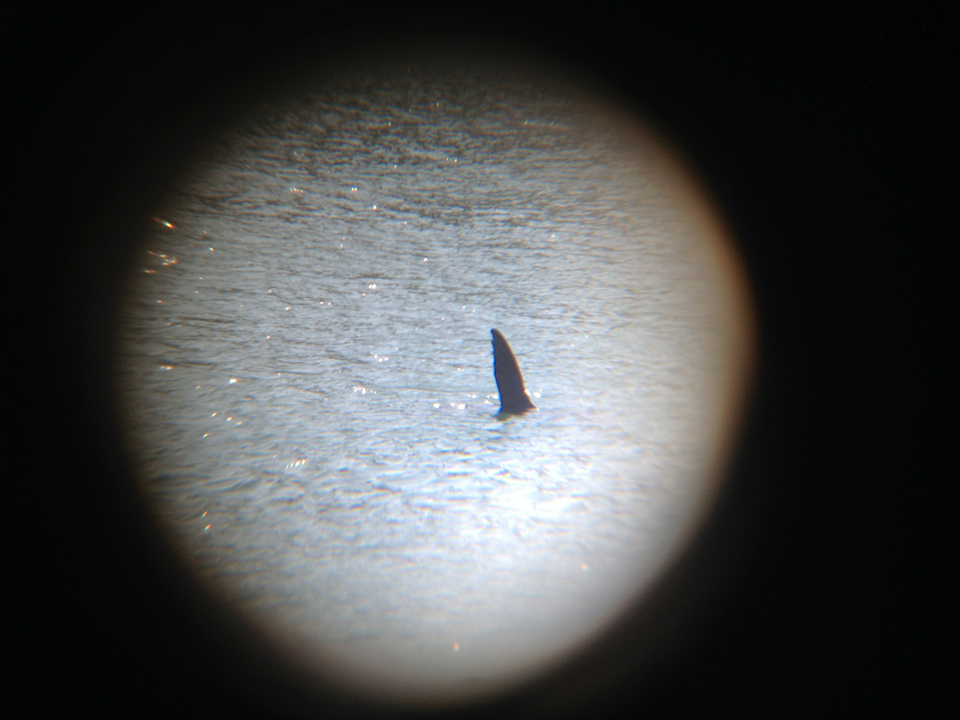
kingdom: Animalia
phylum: Chordata
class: Mammalia
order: Carnivora
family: Otariidae
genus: Zalophus
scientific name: Zalophus californianus
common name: California sea lion
